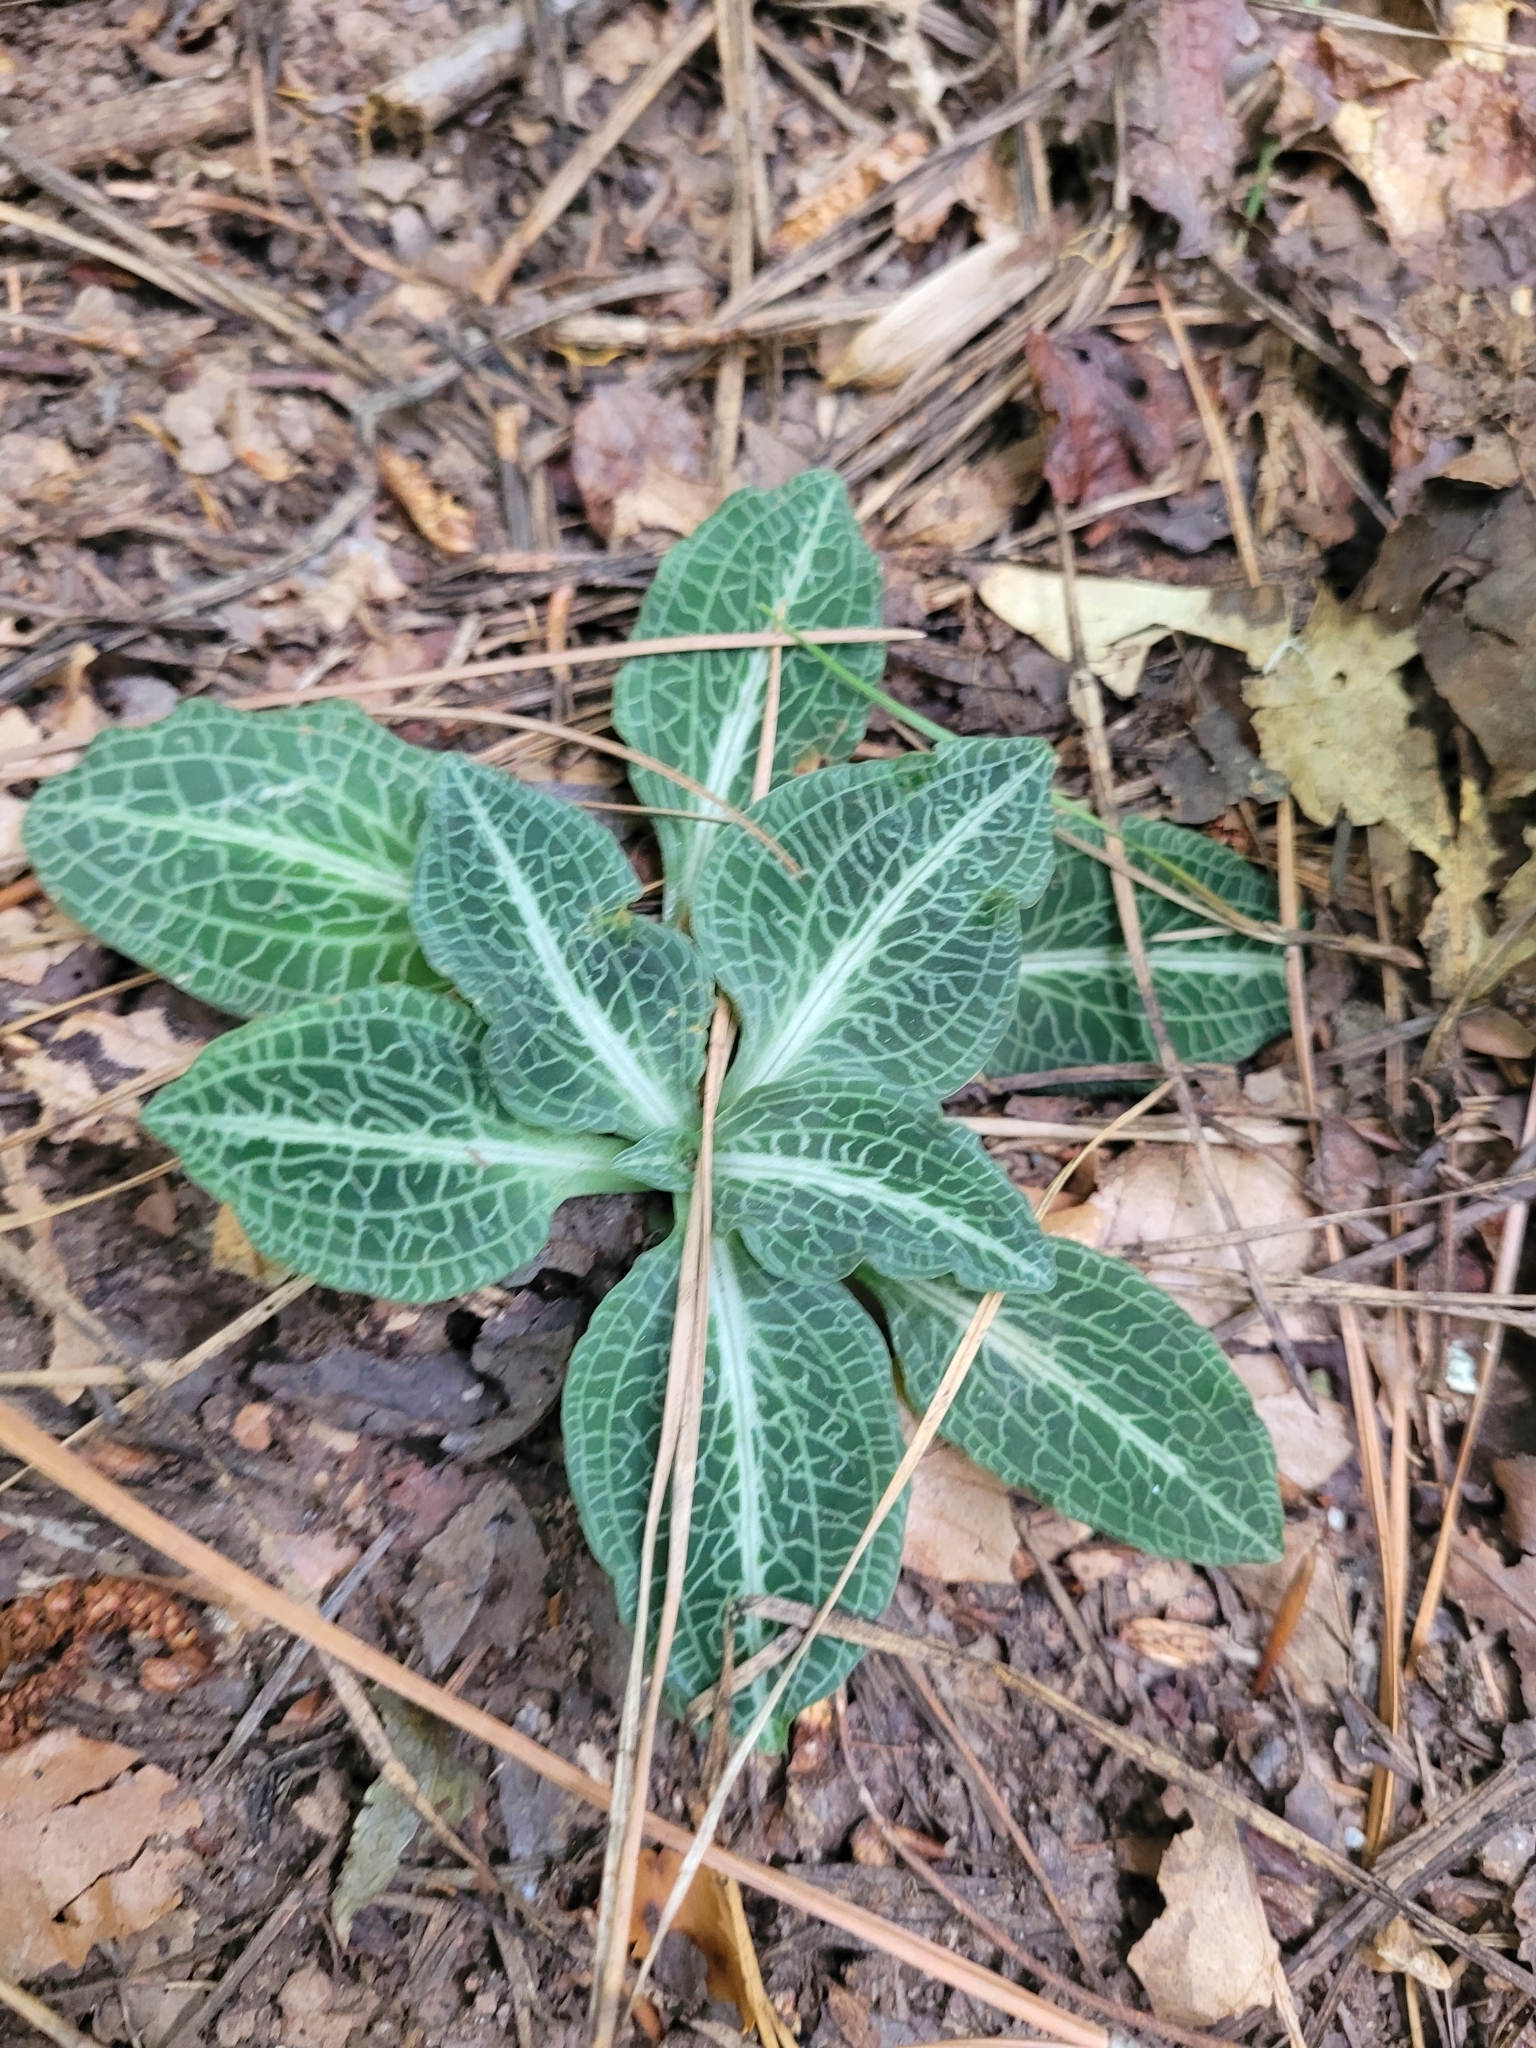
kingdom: Plantae
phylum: Tracheophyta
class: Liliopsida
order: Asparagales
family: Orchidaceae
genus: Goodyera
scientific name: Goodyera pubescens
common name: Downy rattlesnake-plantain
